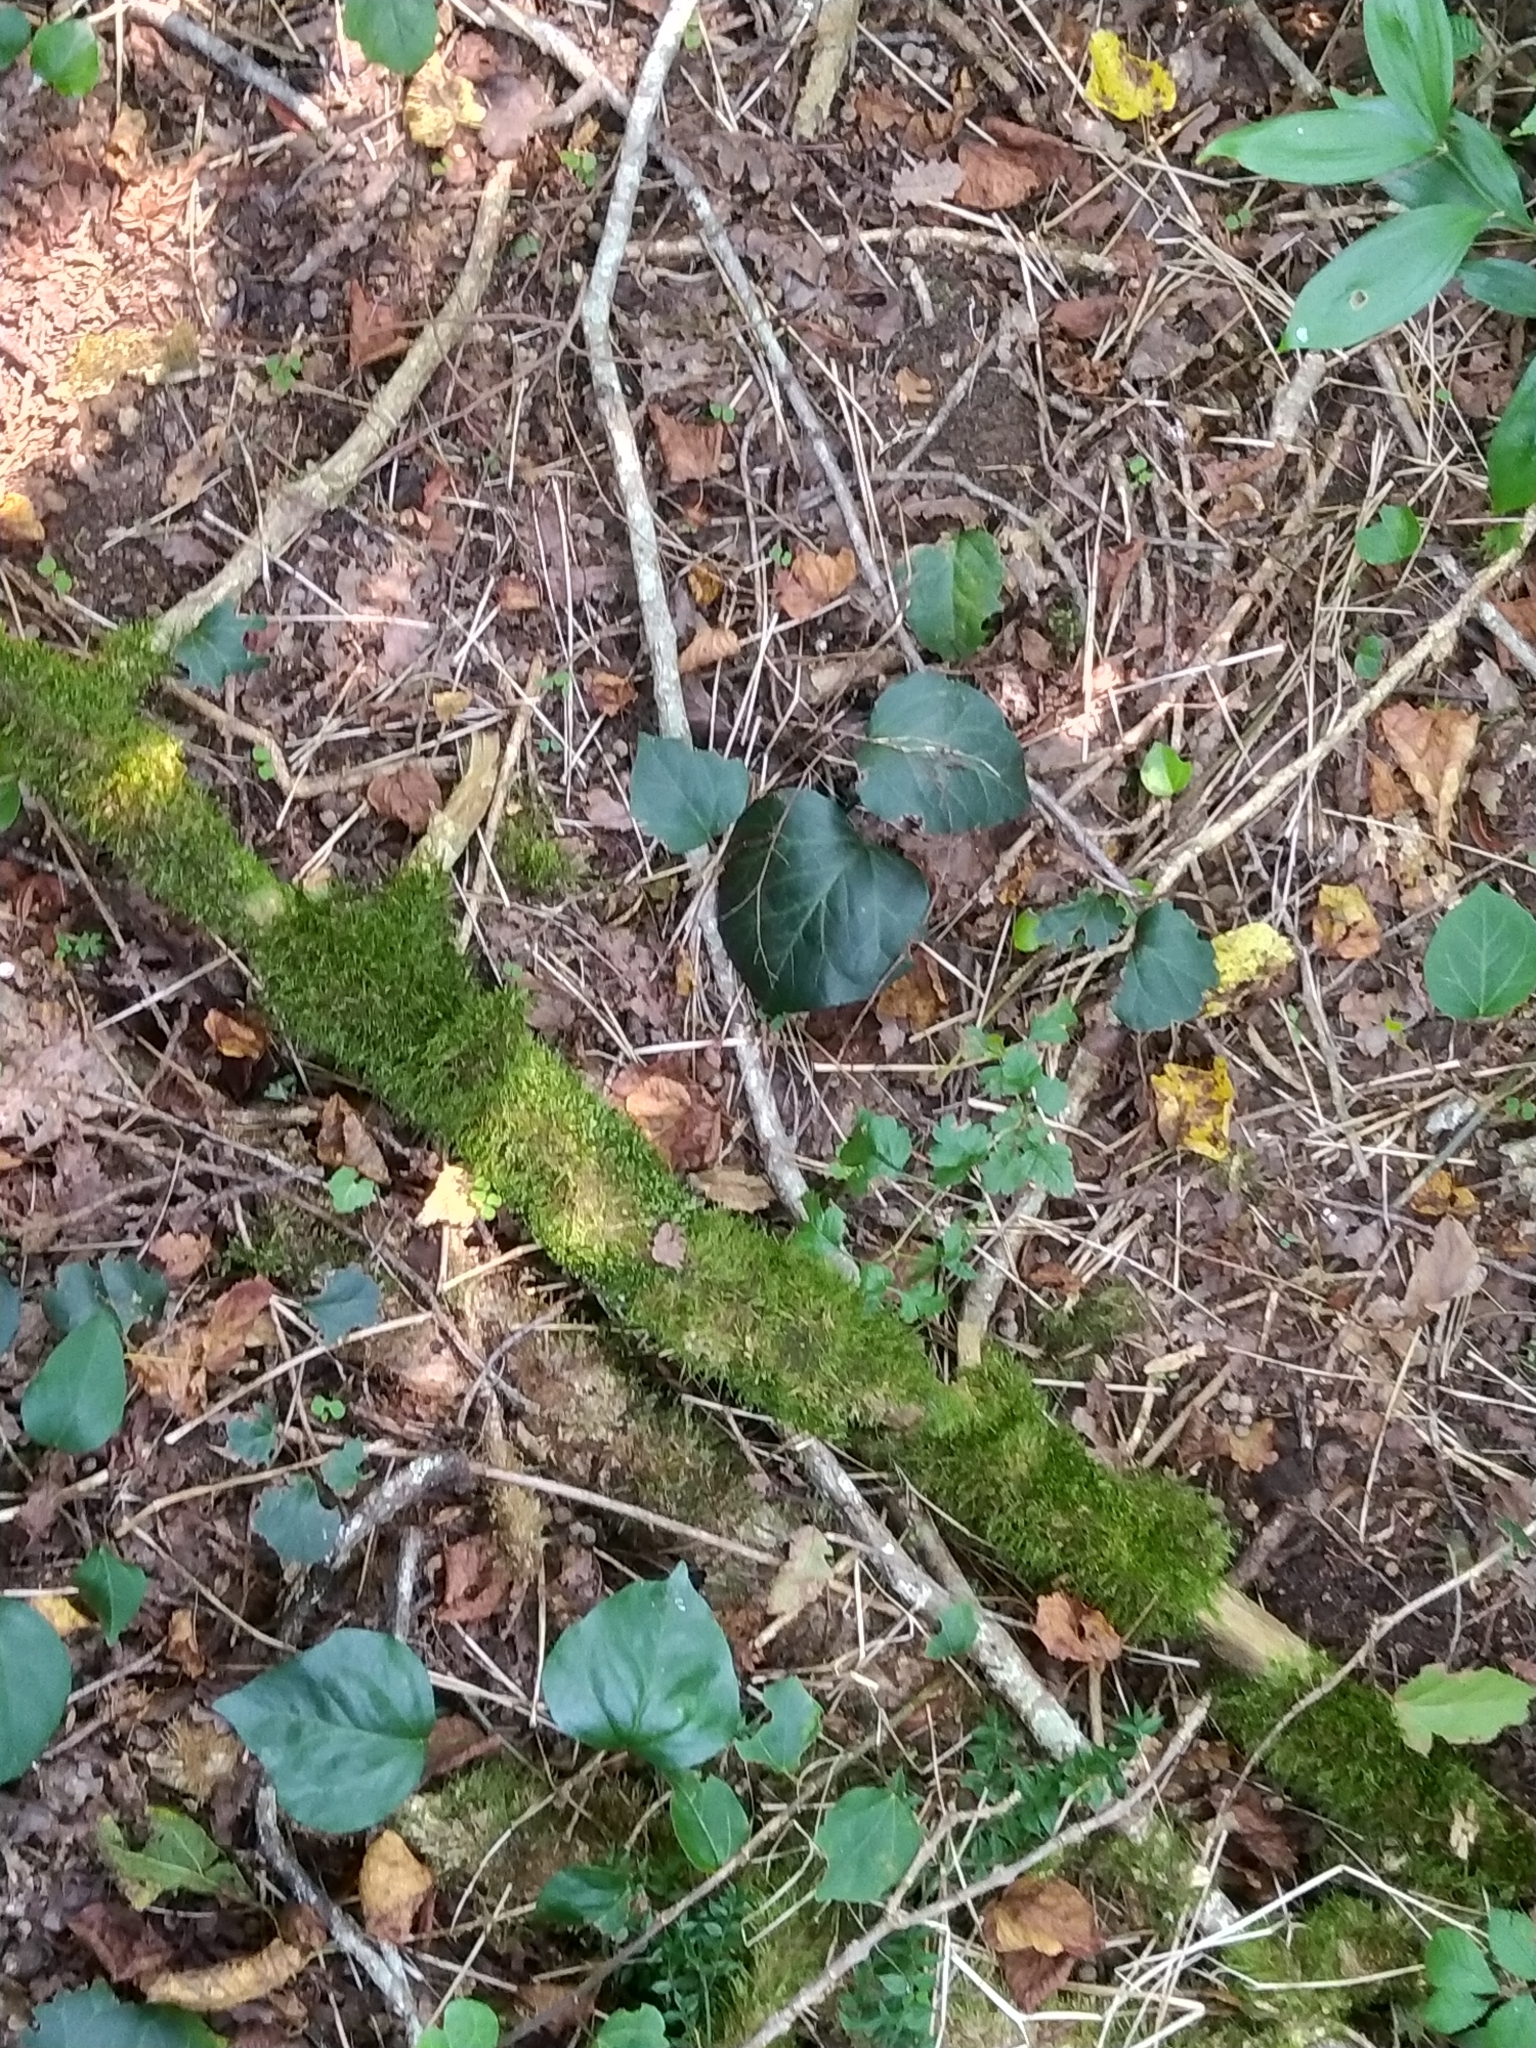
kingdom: Plantae
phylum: Tracheophyta
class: Magnoliopsida
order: Apiales
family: Araliaceae
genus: Hedera
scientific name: Hedera colchica
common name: Persian ivy
